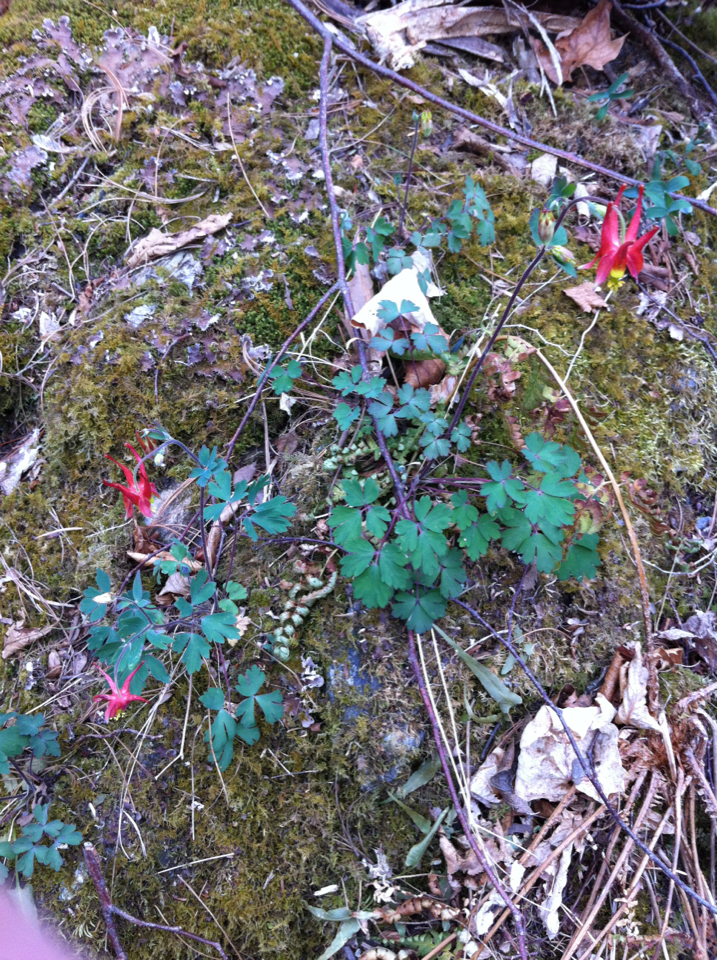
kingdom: Plantae
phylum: Tracheophyta
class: Magnoliopsida
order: Ranunculales
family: Ranunculaceae
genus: Aquilegia
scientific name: Aquilegia canadensis
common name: American columbine
